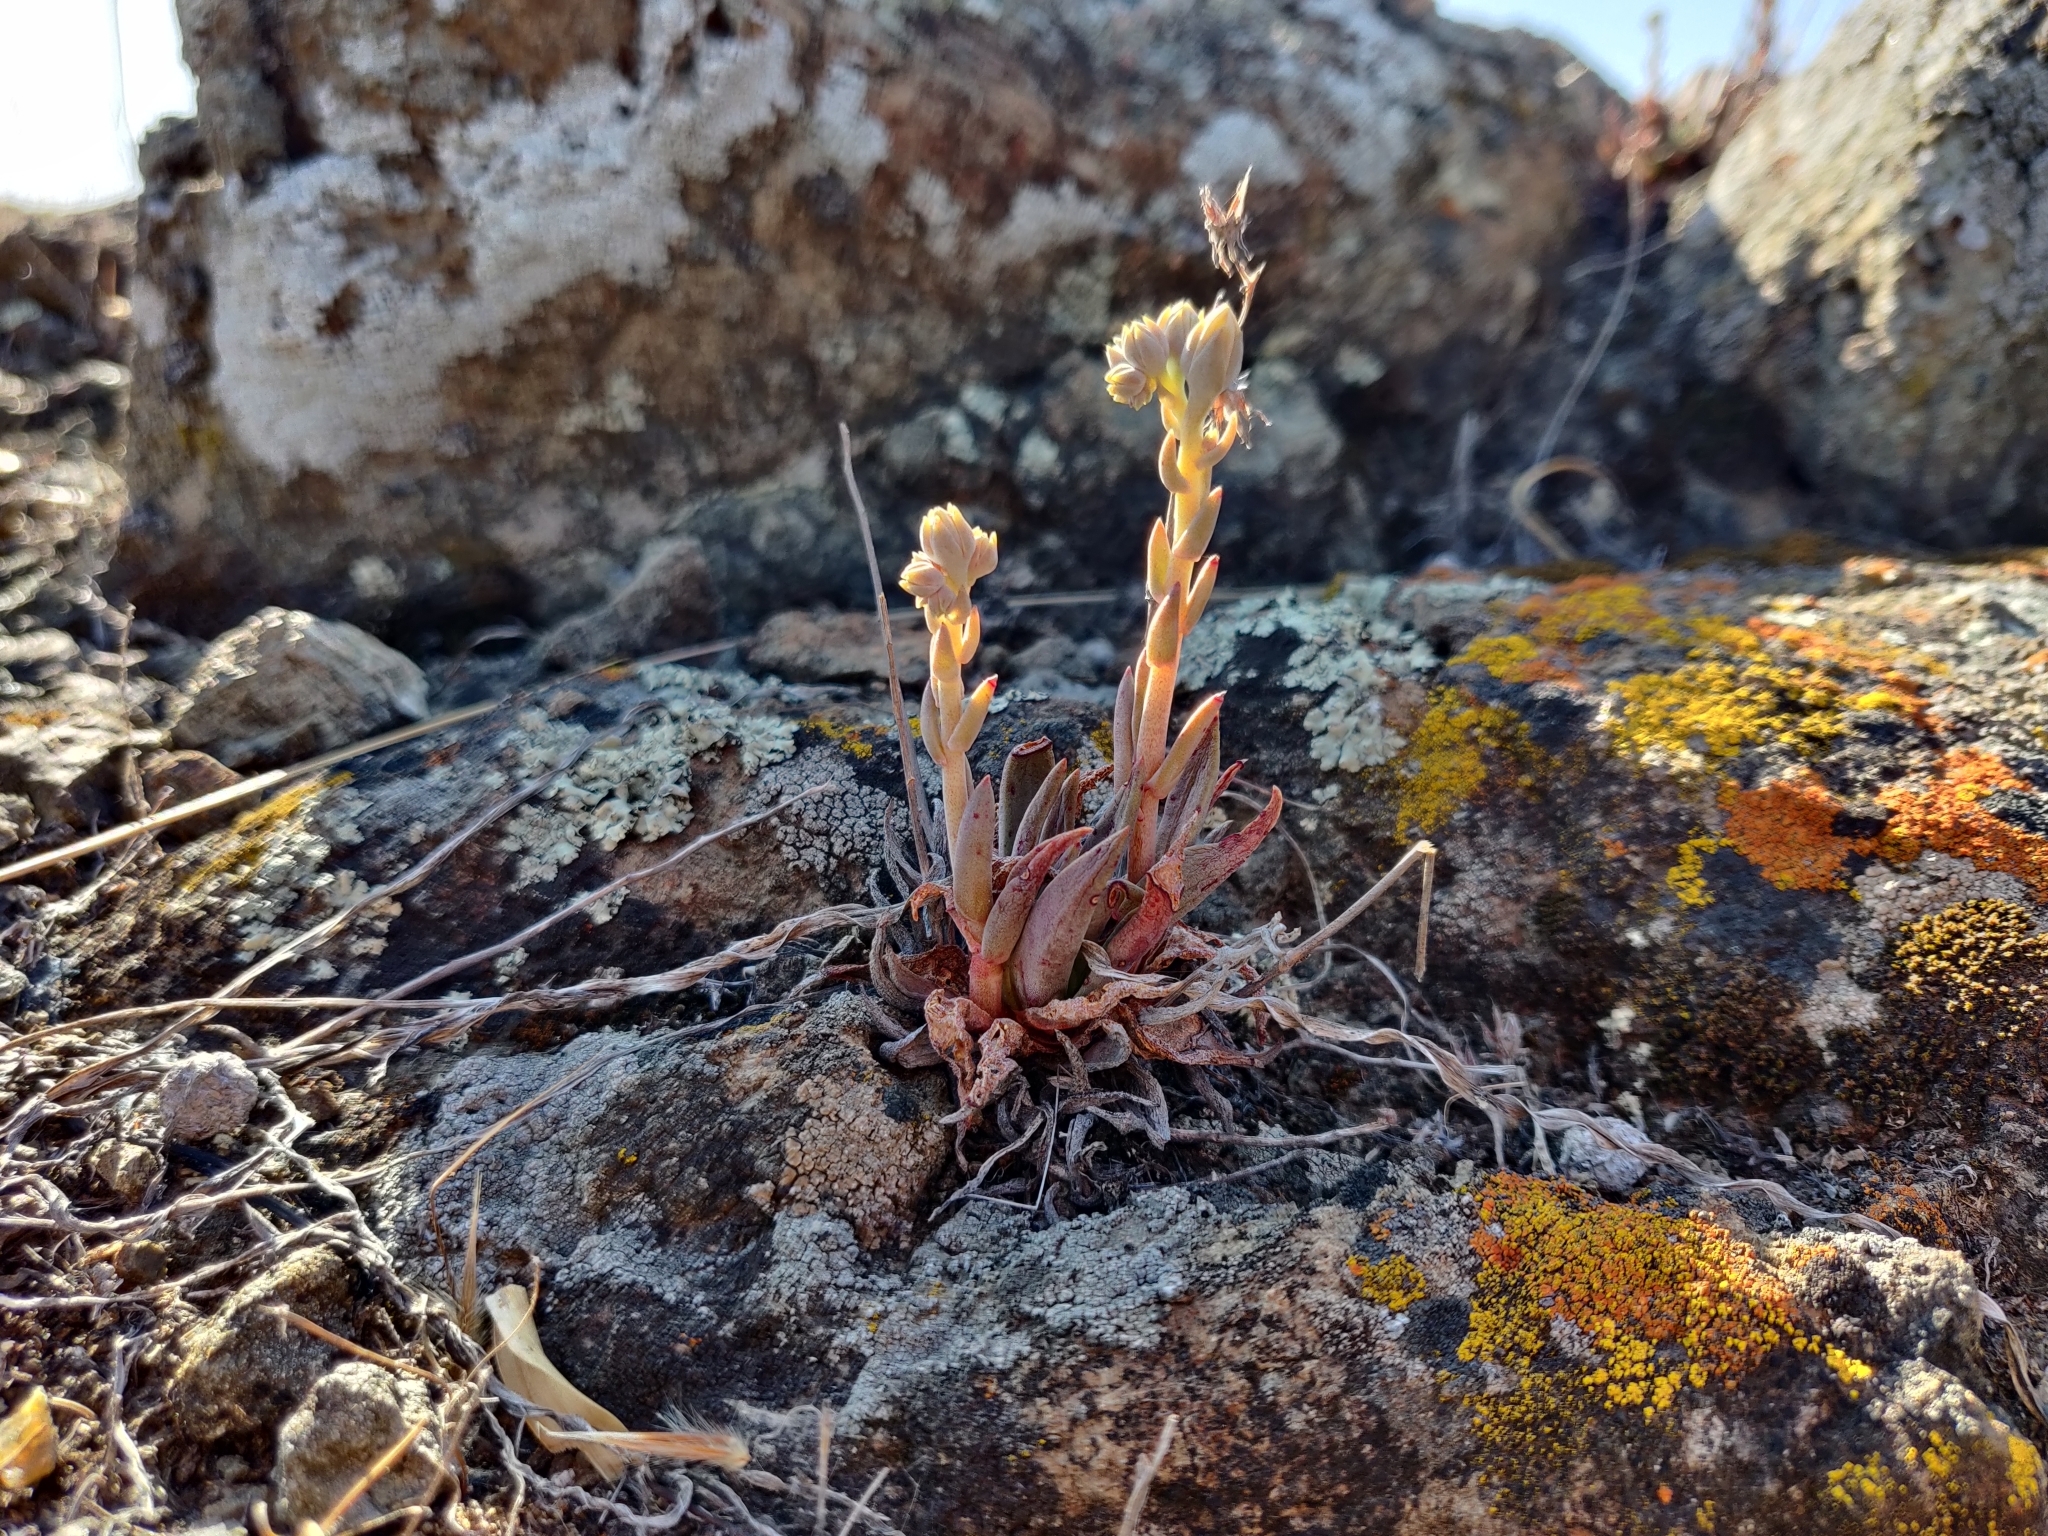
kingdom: Plantae
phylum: Tracheophyta
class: Magnoliopsida
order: Saxifragales
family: Crassulaceae
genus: Dudleya
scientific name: Dudleya abramsii
